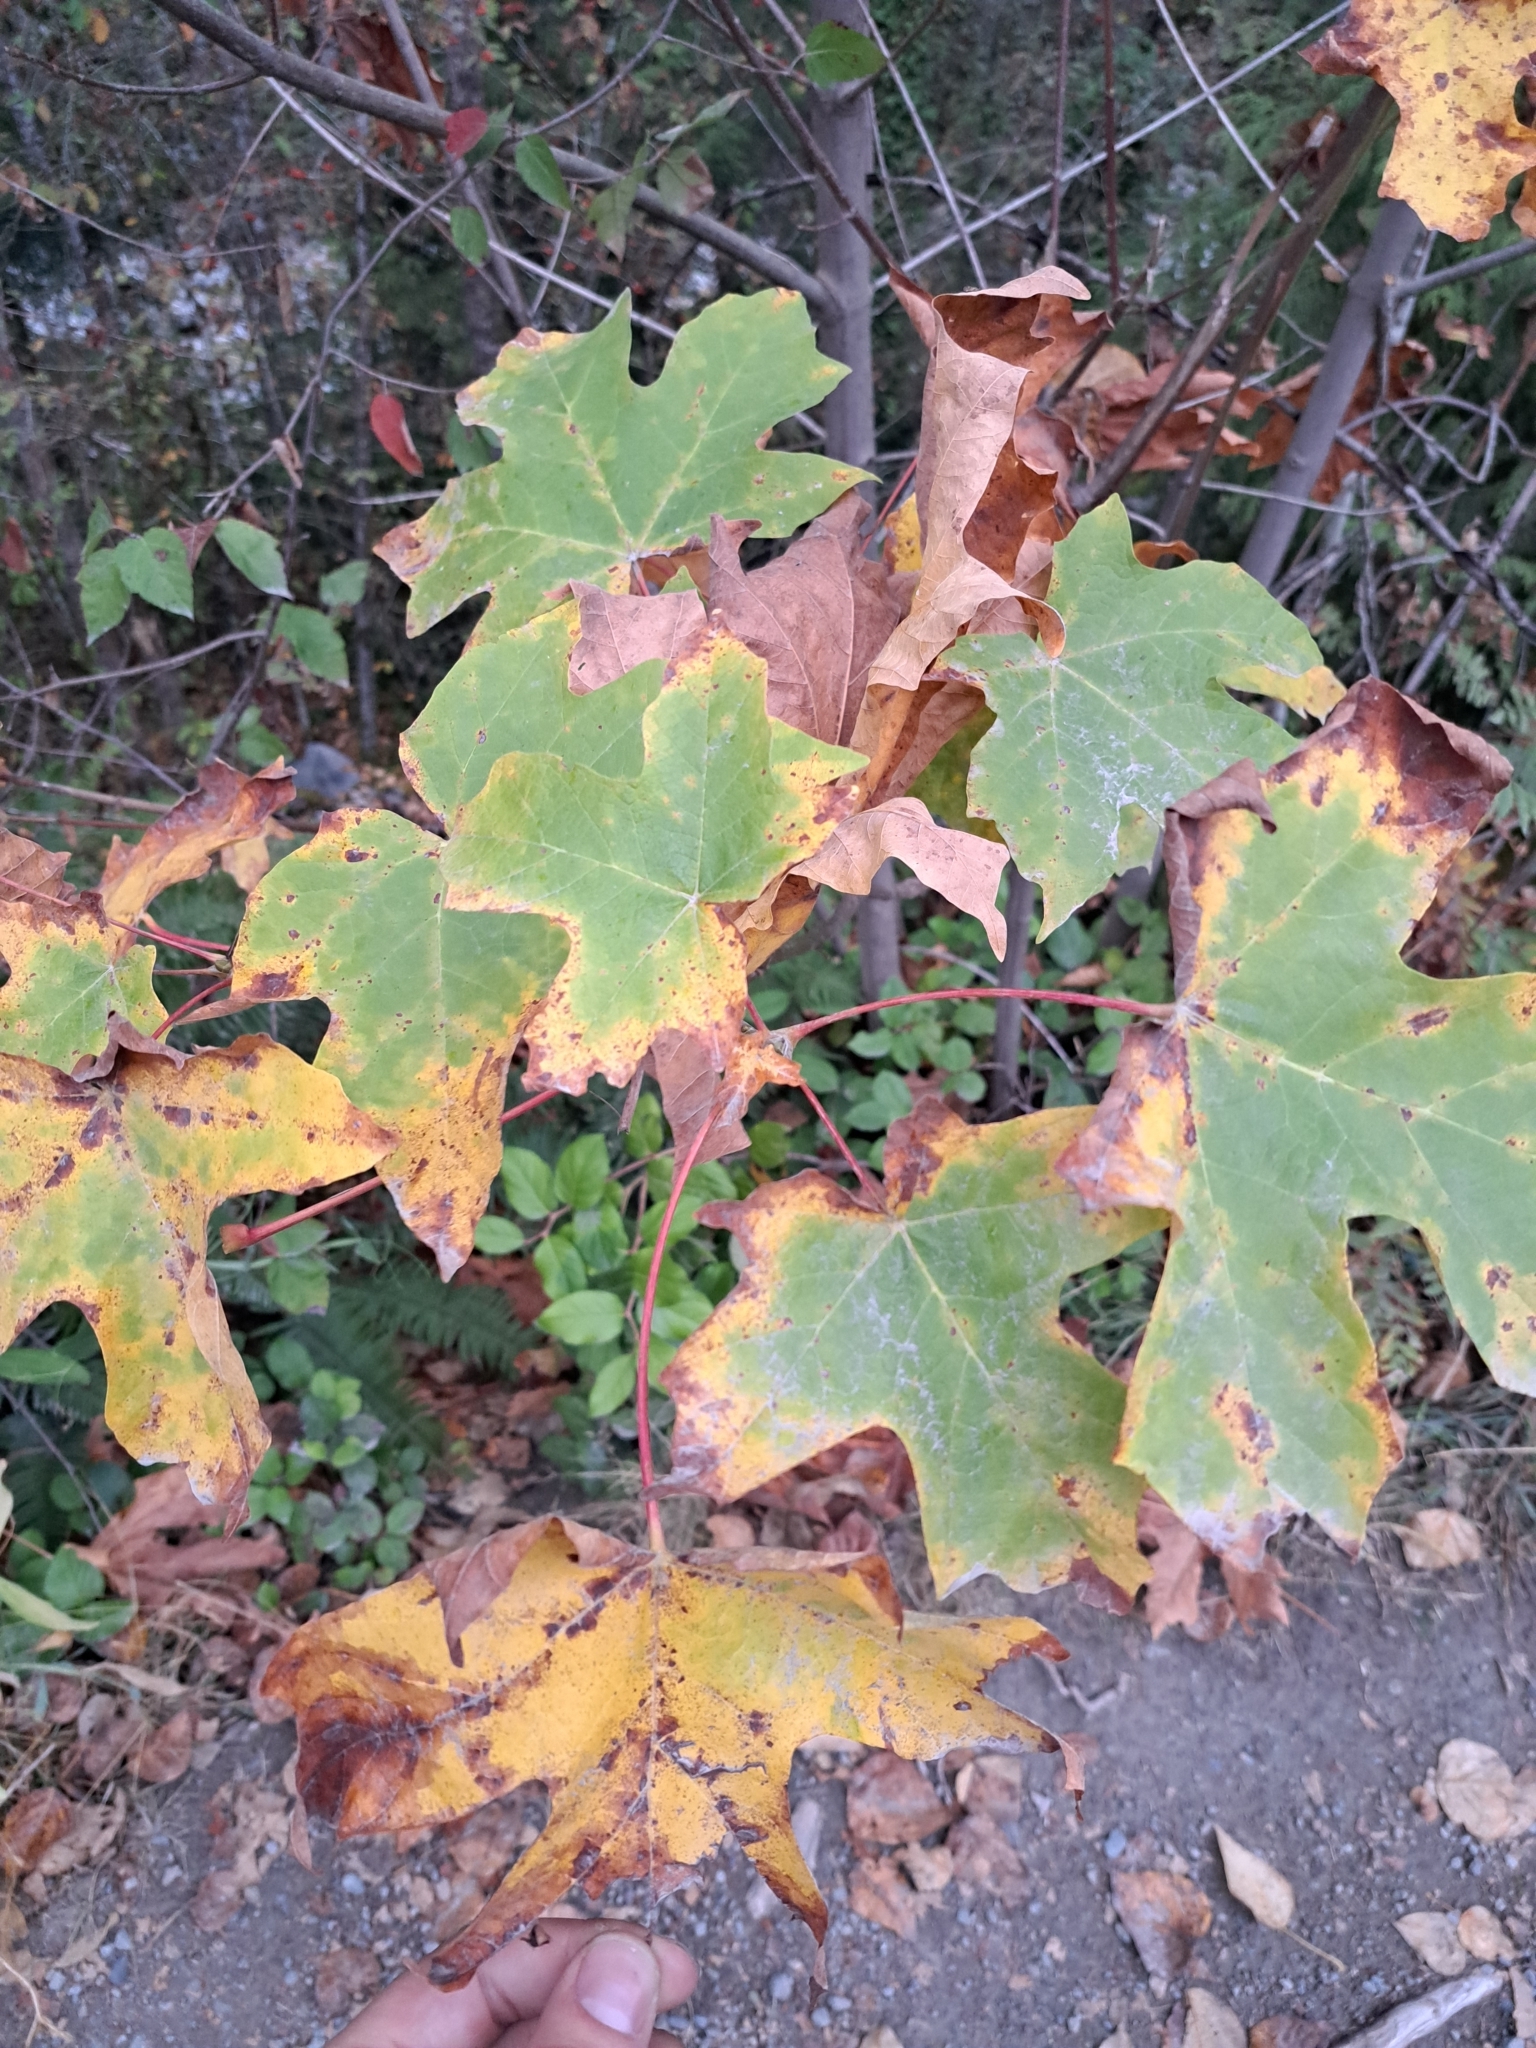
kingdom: Plantae
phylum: Tracheophyta
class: Magnoliopsida
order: Sapindales
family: Sapindaceae
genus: Acer
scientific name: Acer macrophyllum
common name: Oregon maple
